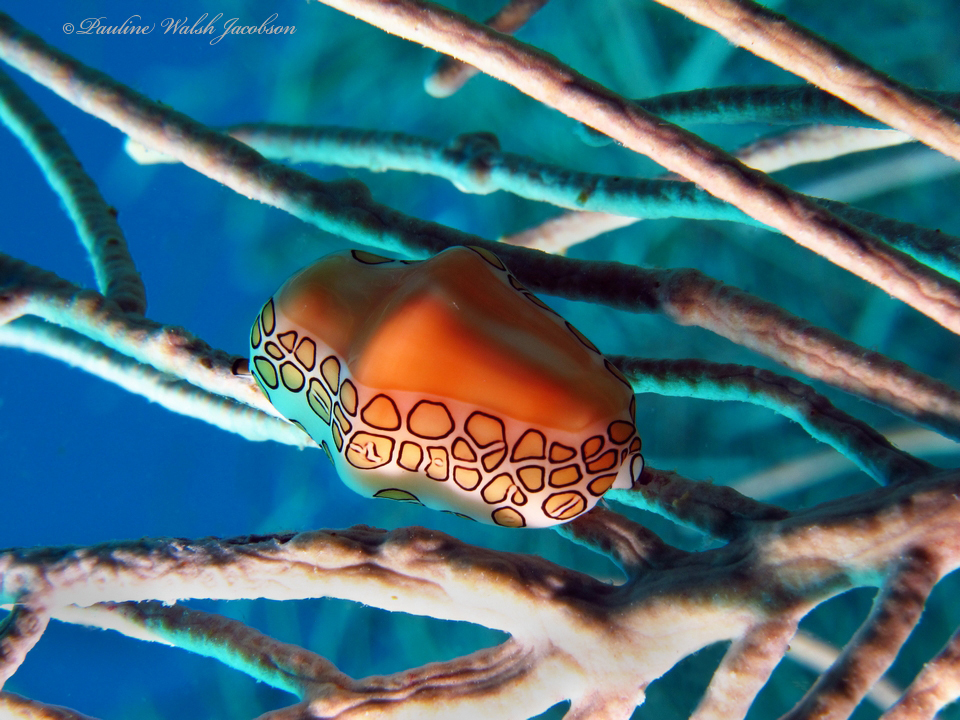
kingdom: Animalia
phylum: Mollusca
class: Gastropoda
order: Littorinimorpha
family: Ovulidae
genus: Cyphoma
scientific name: Cyphoma gibbosum
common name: Flamingo tongue
